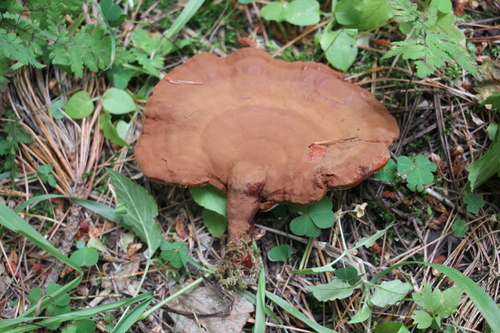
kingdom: Fungi
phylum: Basidiomycota
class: Agaricomycetes
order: Polyporales
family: Polyporaceae
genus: Ganoderma
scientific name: Ganoderma lucidum
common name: Lacquered bracket
